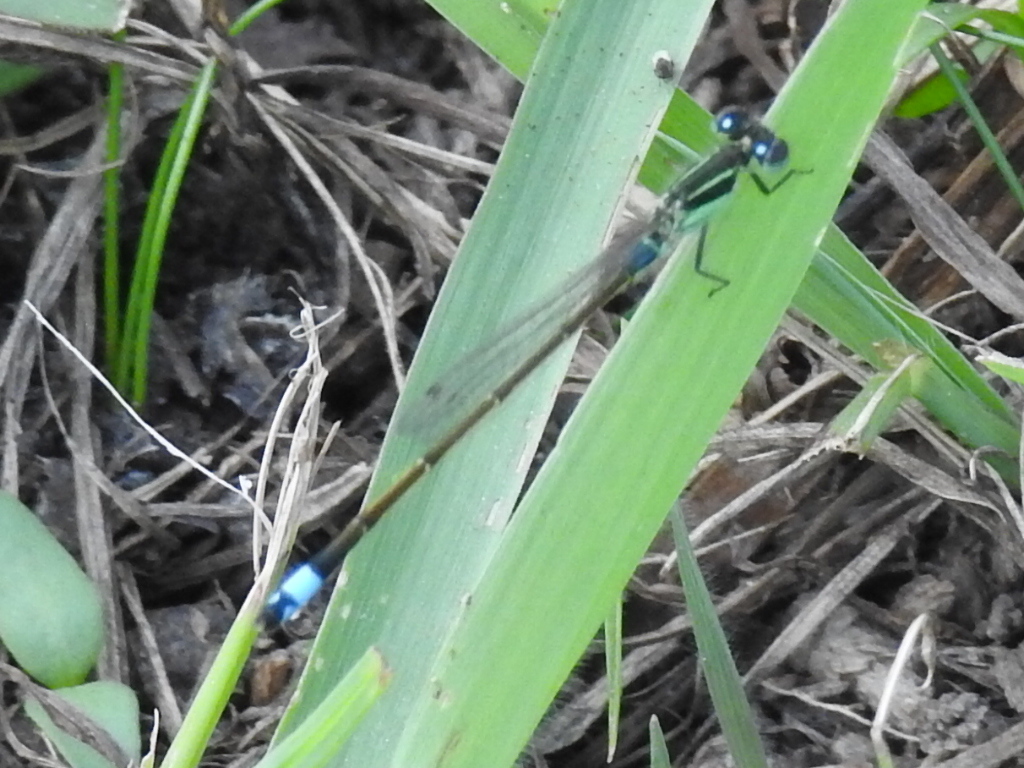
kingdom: Animalia
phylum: Arthropoda
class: Insecta
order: Odonata
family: Coenagrionidae
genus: Ischnura
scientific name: Ischnura ramburii
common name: Rambur's forktail
